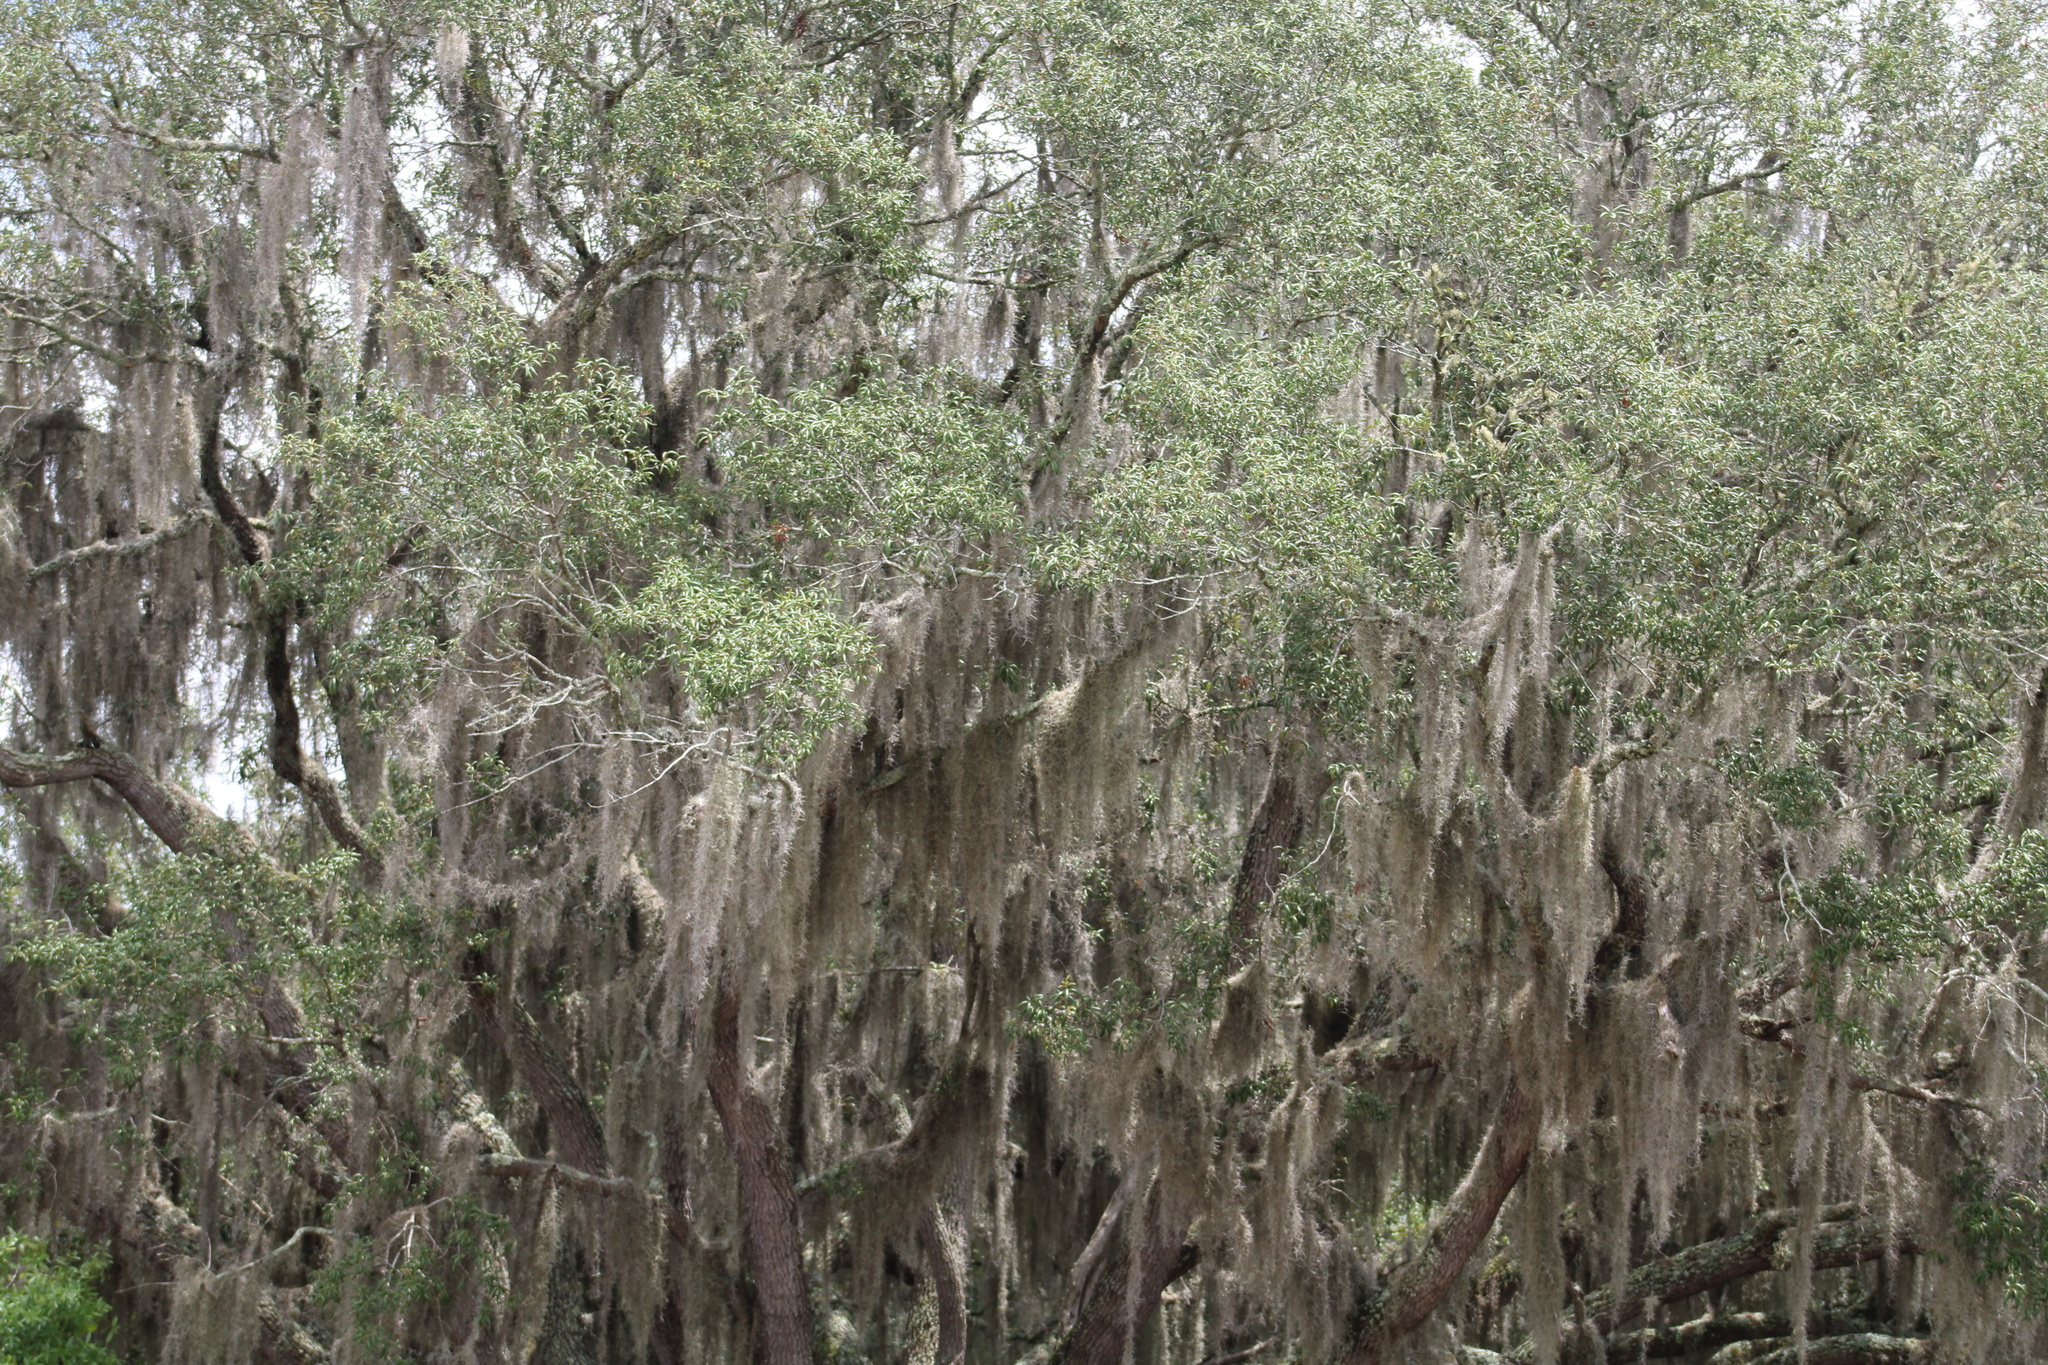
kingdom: Plantae
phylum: Tracheophyta
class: Magnoliopsida
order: Fagales
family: Fagaceae
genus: Quercus
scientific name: Quercus virginiana
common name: Southern live oak
